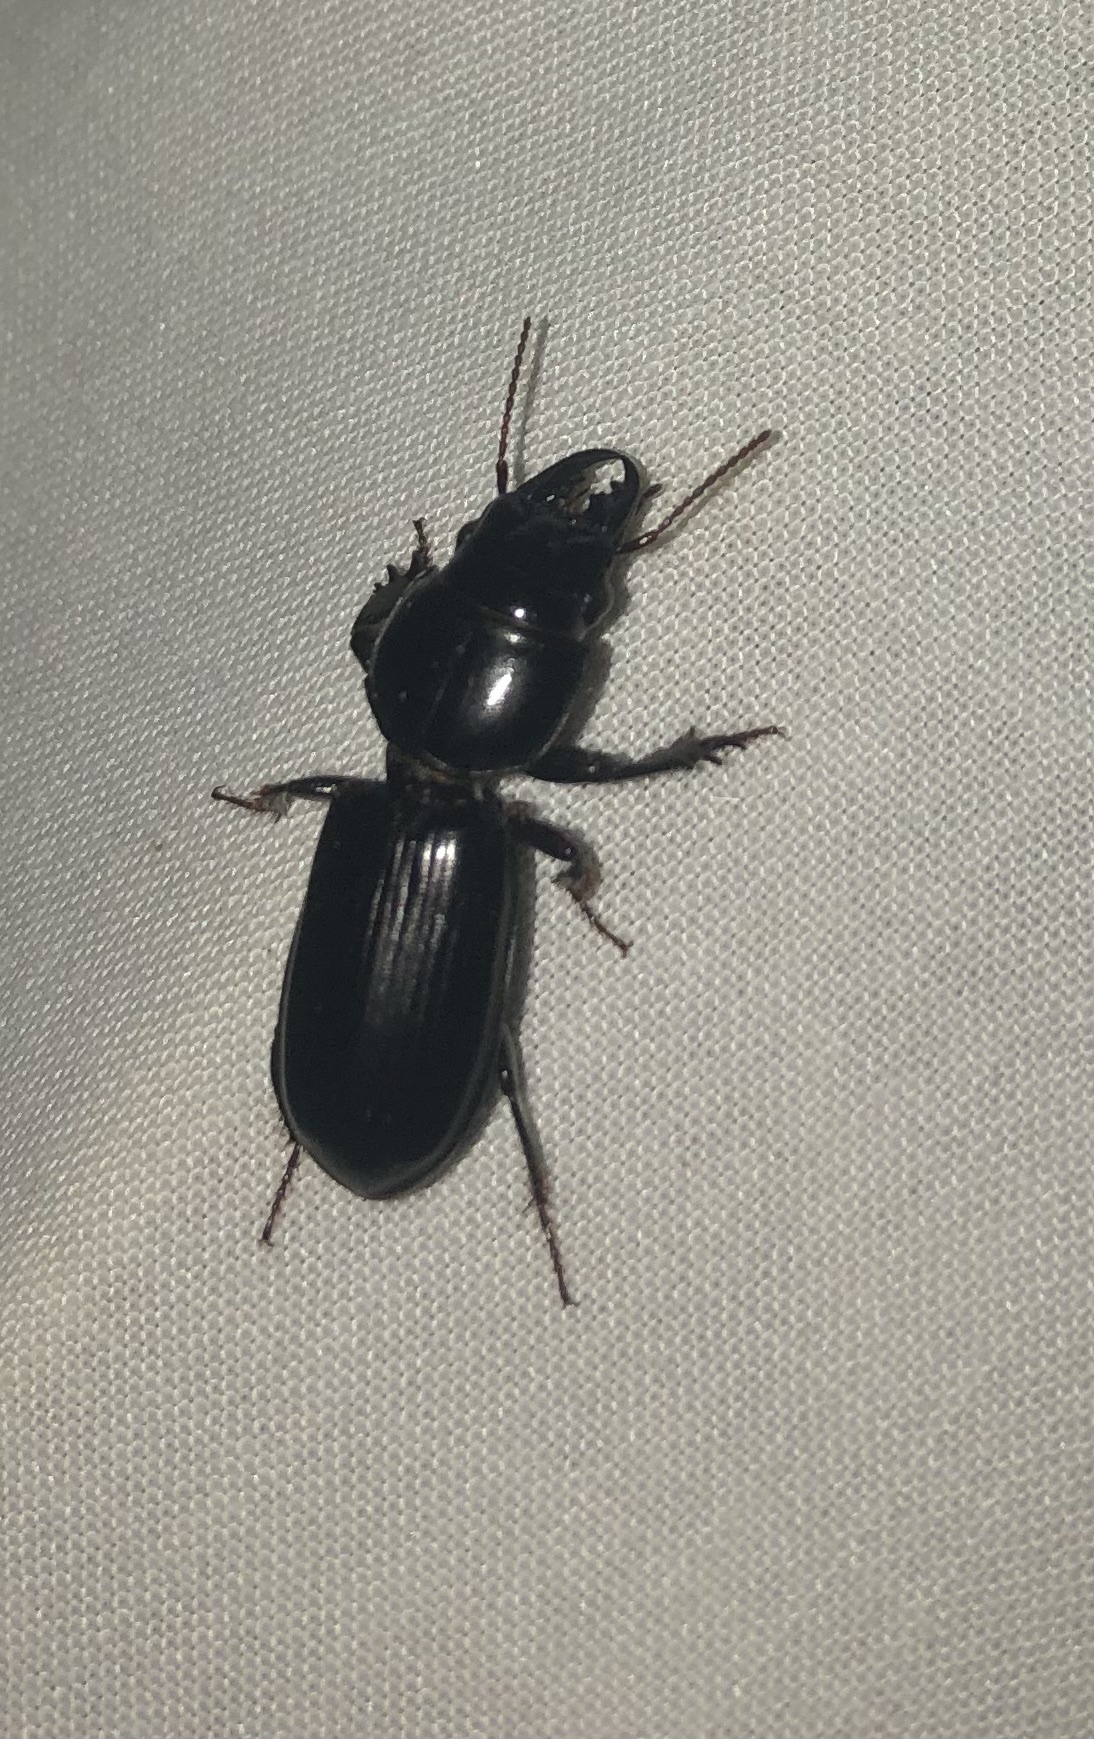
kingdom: Animalia
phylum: Arthropoda
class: Insecta
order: Coleoptera
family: Carabidae
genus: Scarites
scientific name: Scarites subterraneus
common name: Big-headed ground beetle
